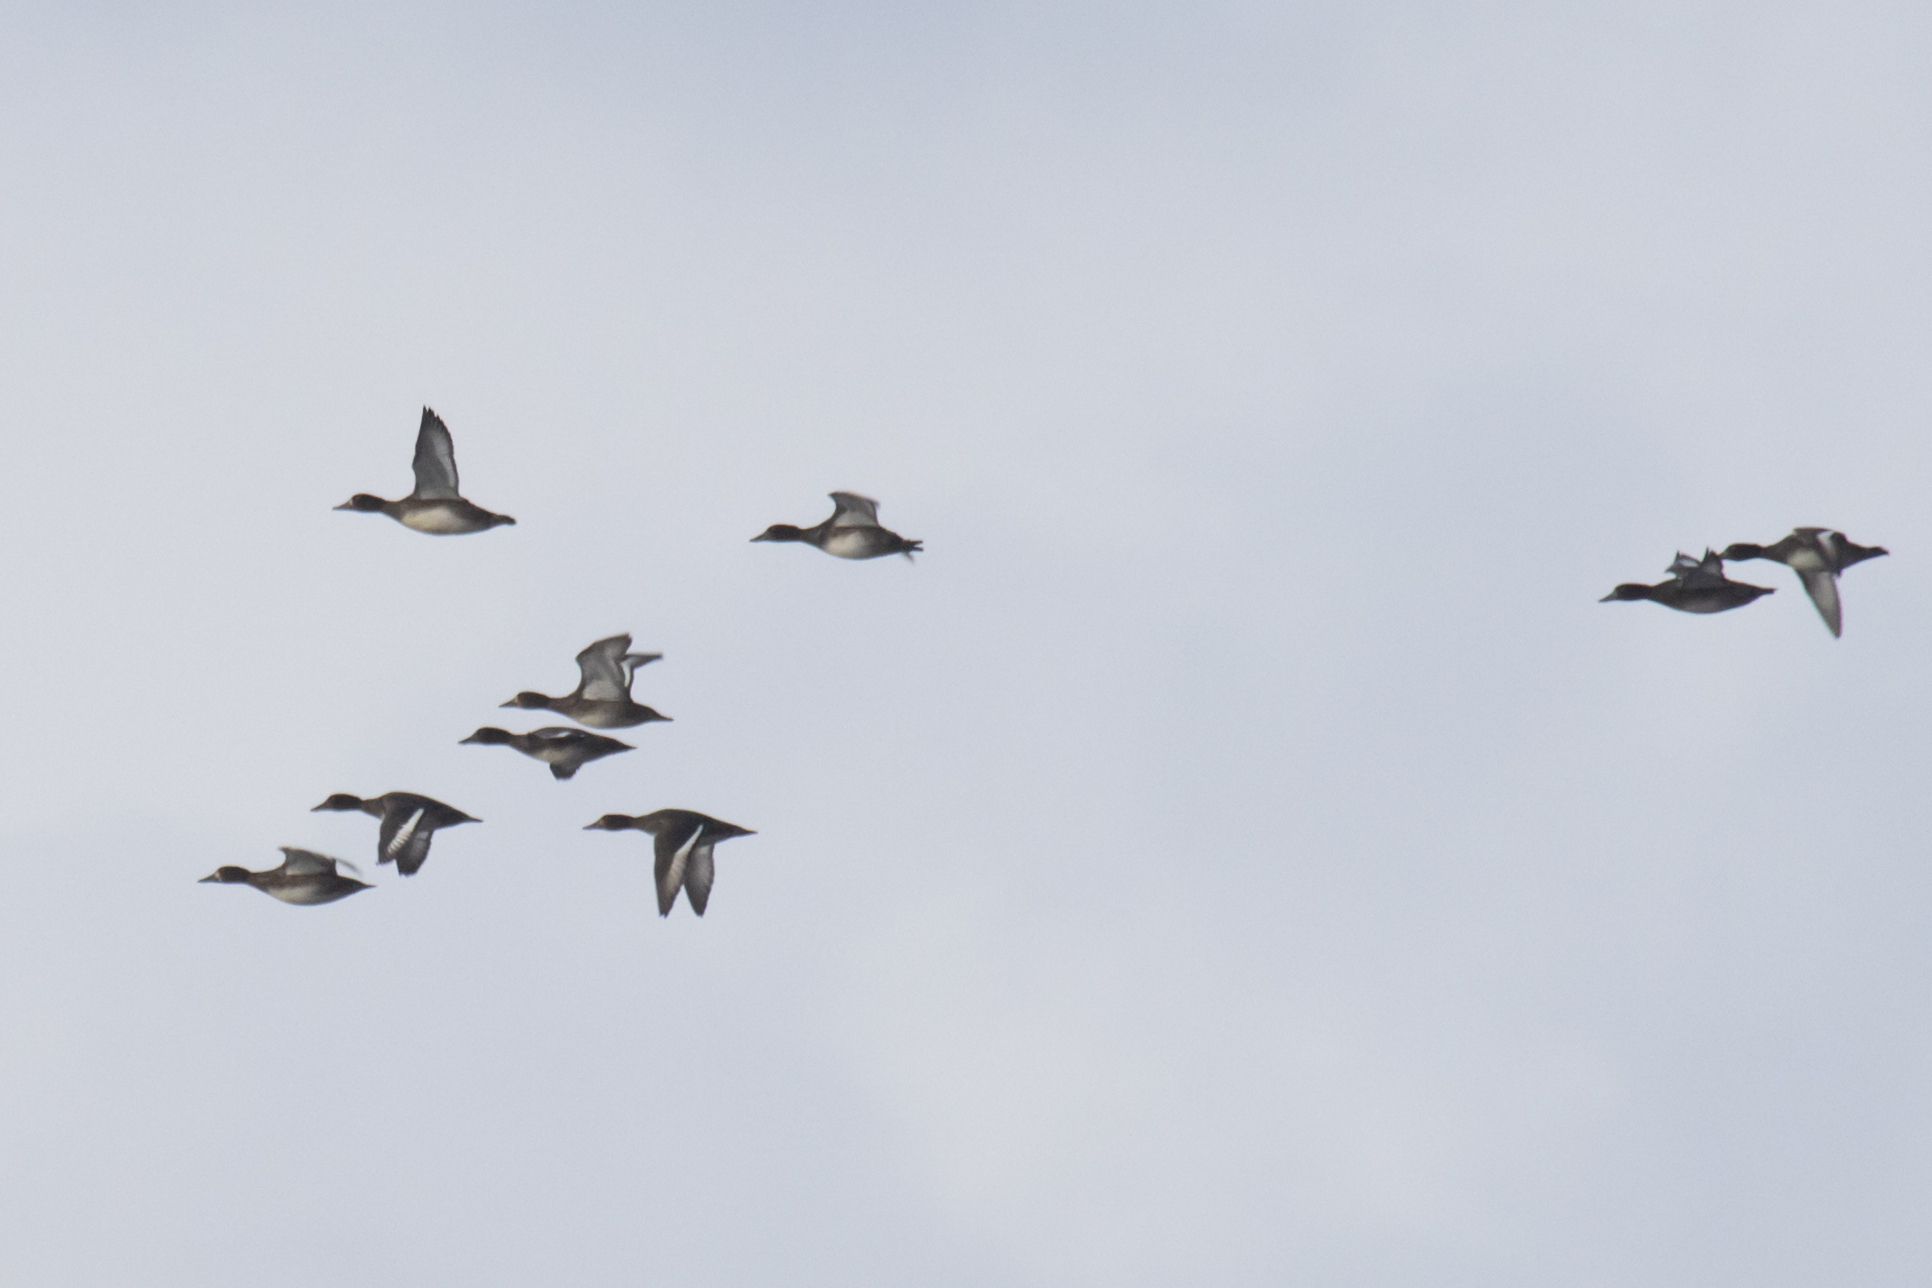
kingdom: Animalia
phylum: Chordata
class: Aves
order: Anseriformes
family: Anatidae
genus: Aythya
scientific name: Aythya fuligula
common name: Tufted duck
